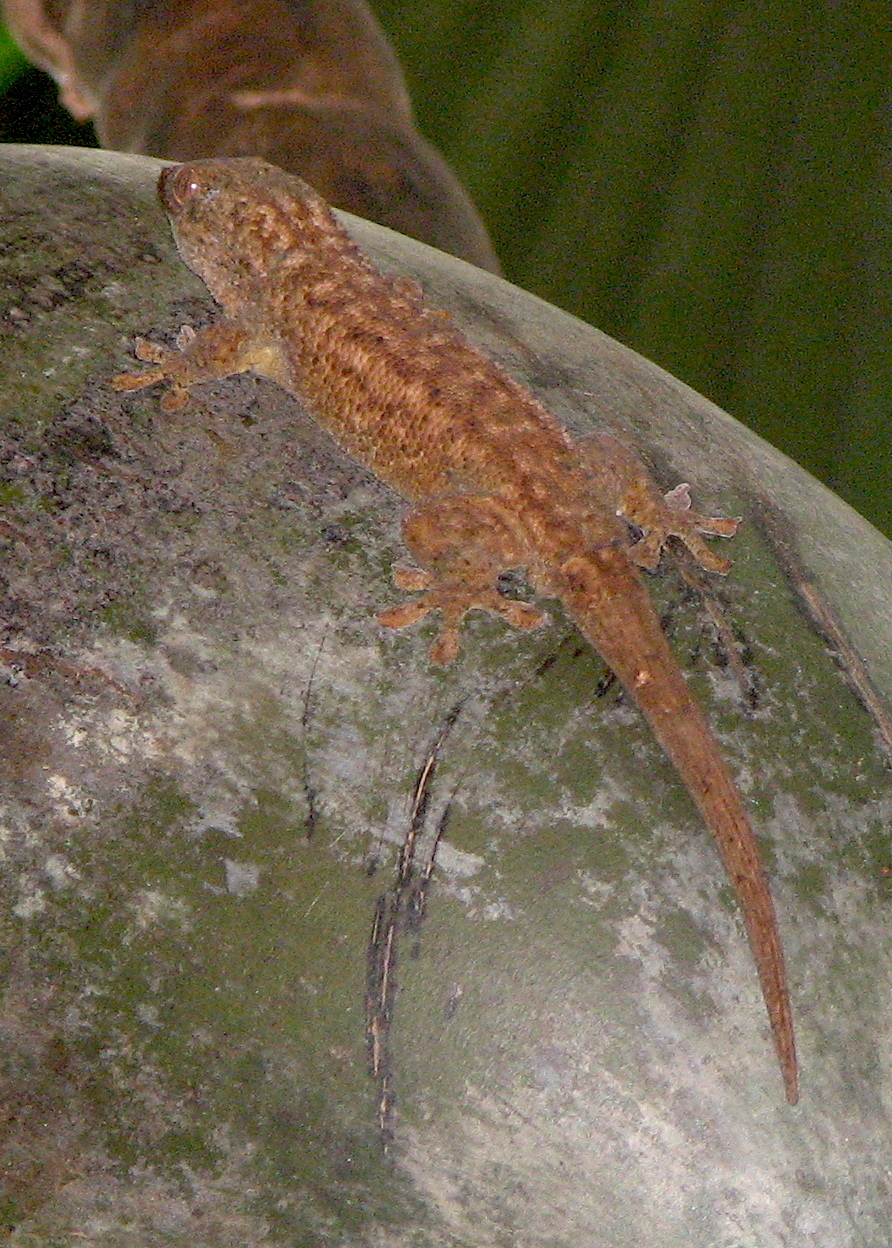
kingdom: Animalia
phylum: Chordata
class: Squamata
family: Gekkonidae
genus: Ailuronyx
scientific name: Ailuronyx seychellensis
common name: English common name not available
